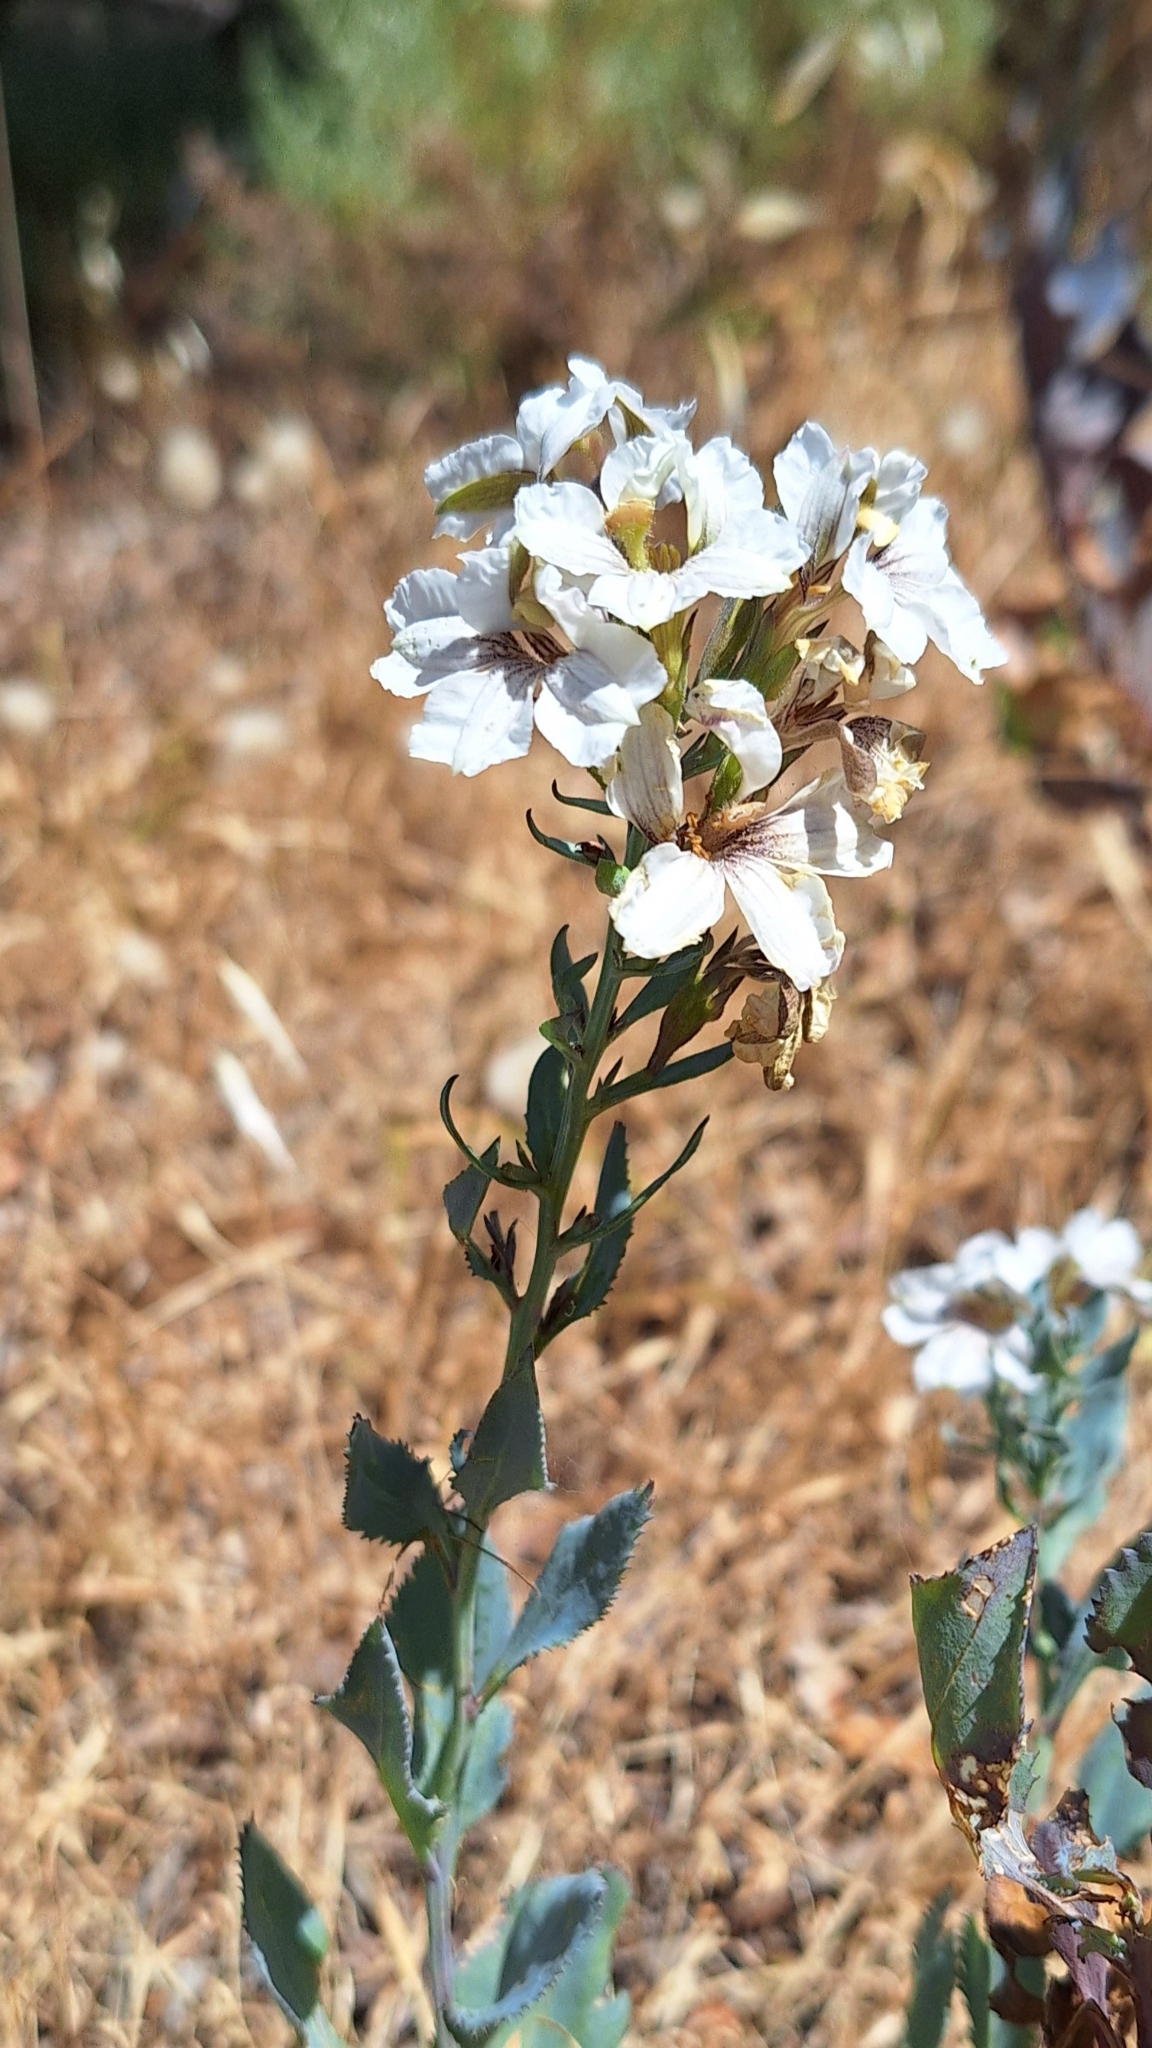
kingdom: Plantae
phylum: Tracheophyta
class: Magnoliopsida
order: Asterales
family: Goodeniaceae
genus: Goodenia
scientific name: Goodenia albiflora
